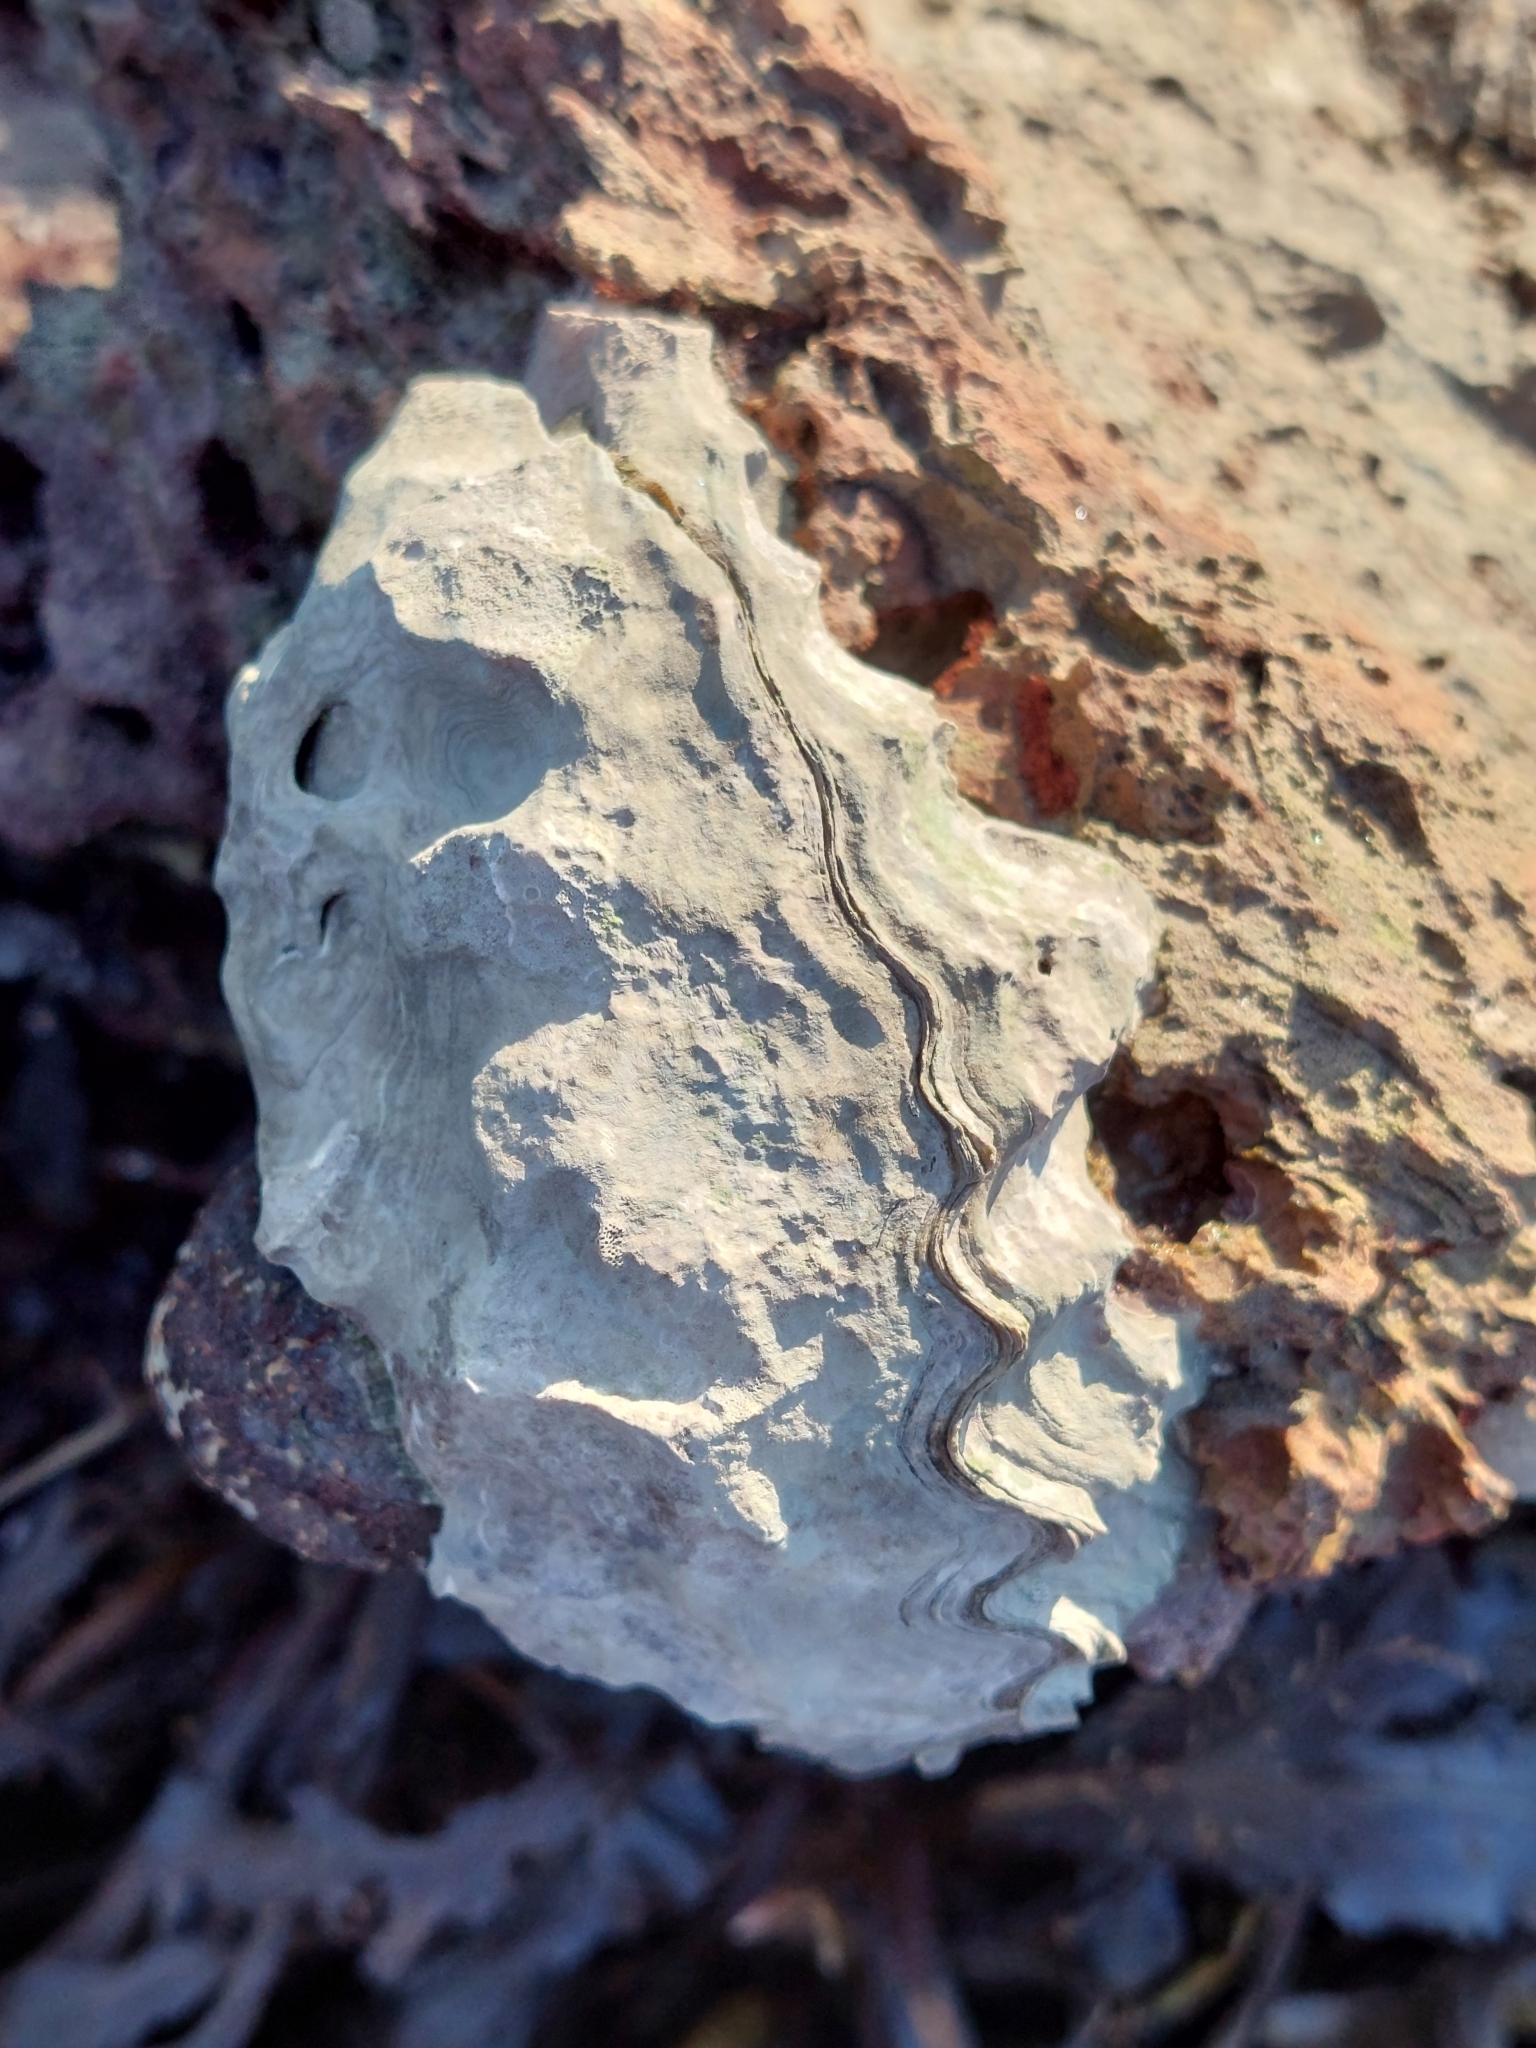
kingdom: Animalia
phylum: Mollusca
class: Bivalvia
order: Ostreida
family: Ostreidae
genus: Magallana
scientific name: Magallana gigas
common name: Pacific oyster
